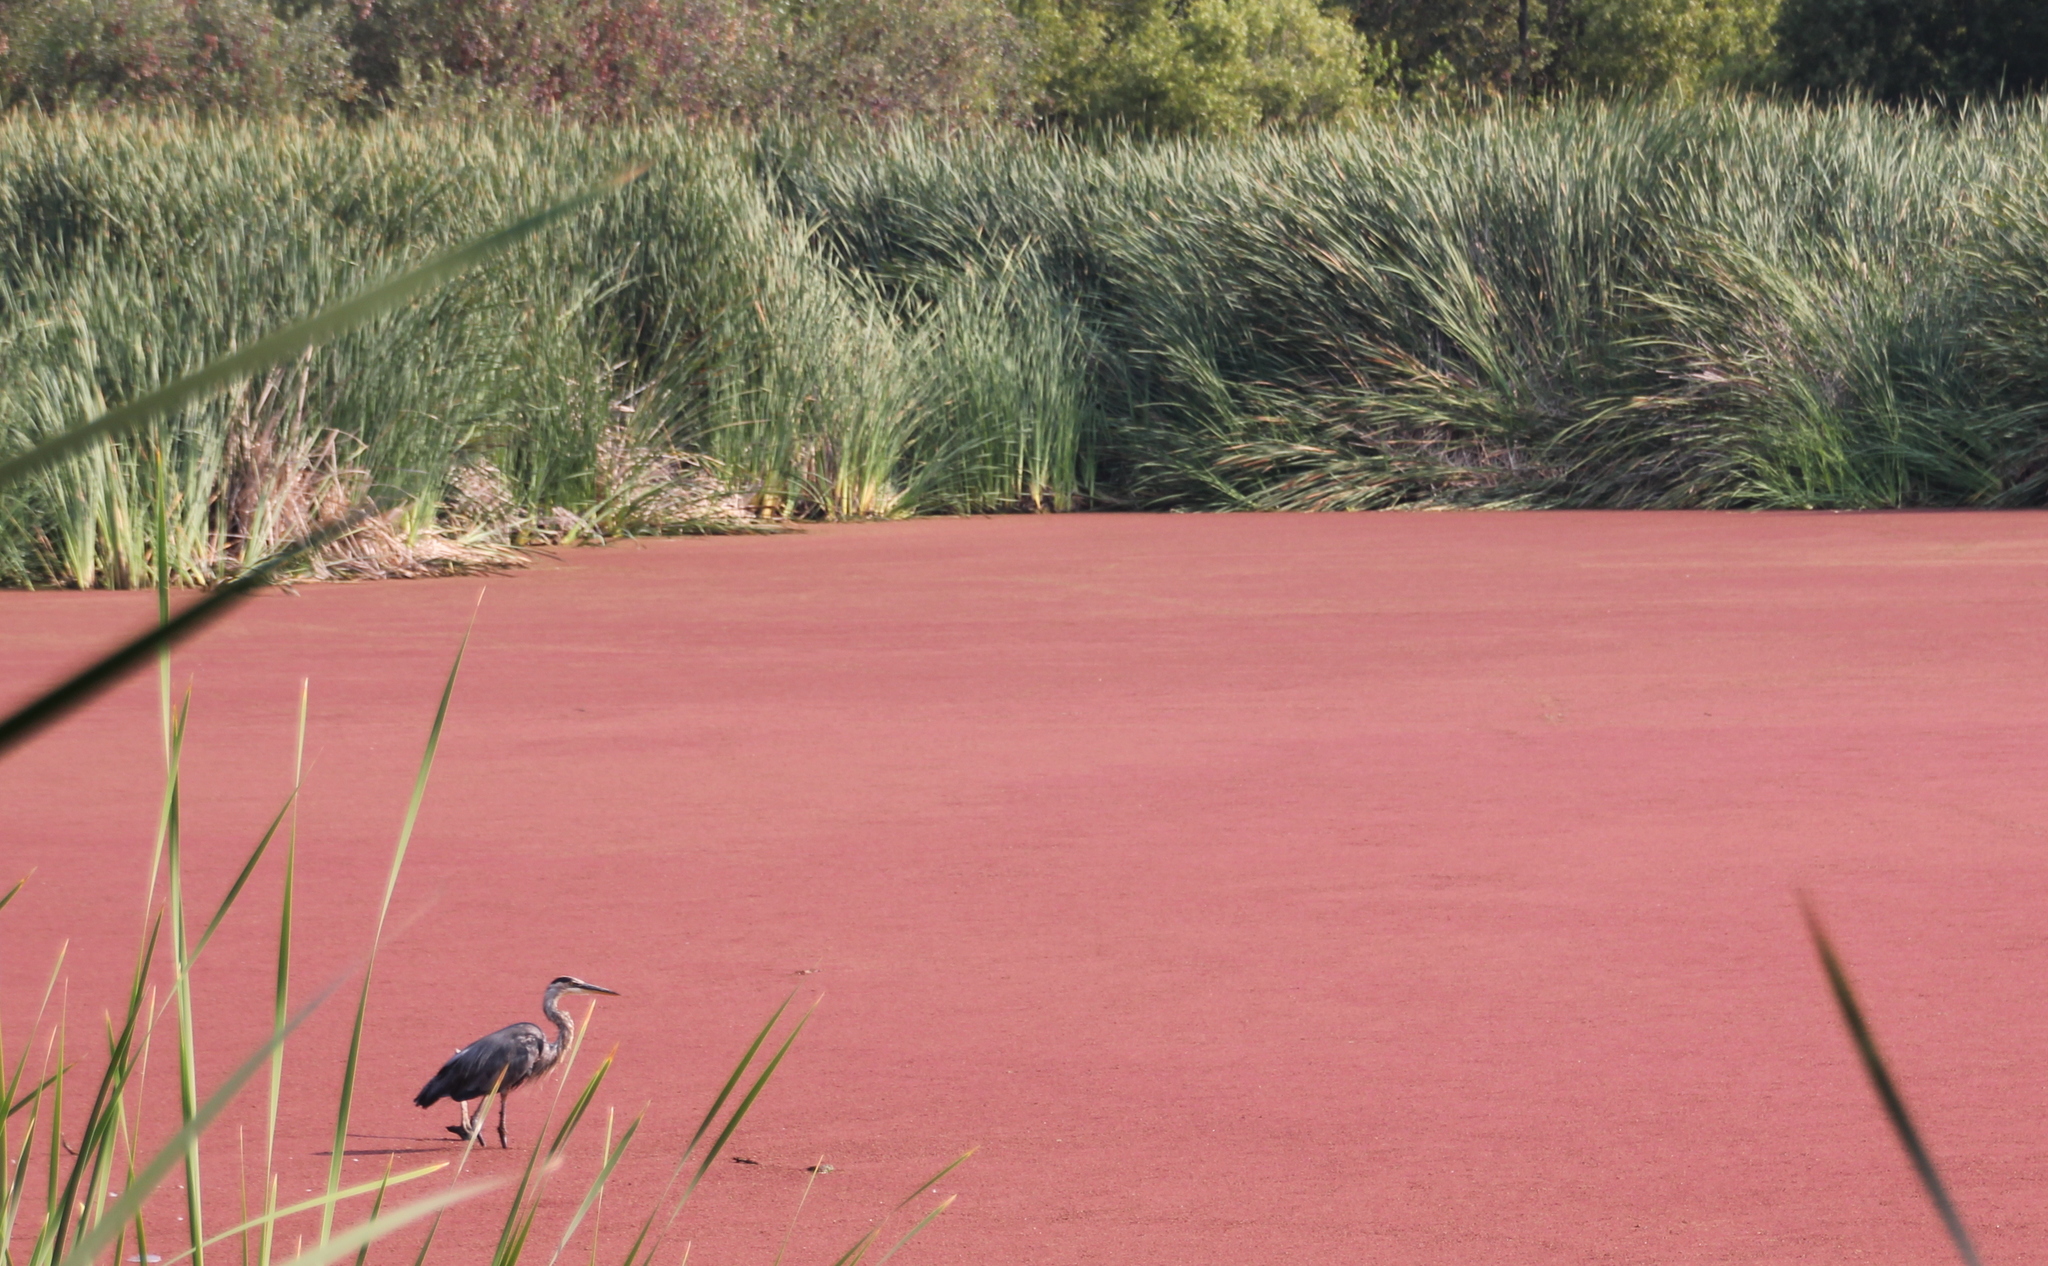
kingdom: Animalia
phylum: Chordata
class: Aves
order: Pelecaniformes
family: Ardeidae
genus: Ardea
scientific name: Ardea herodias
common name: Great blue heron
